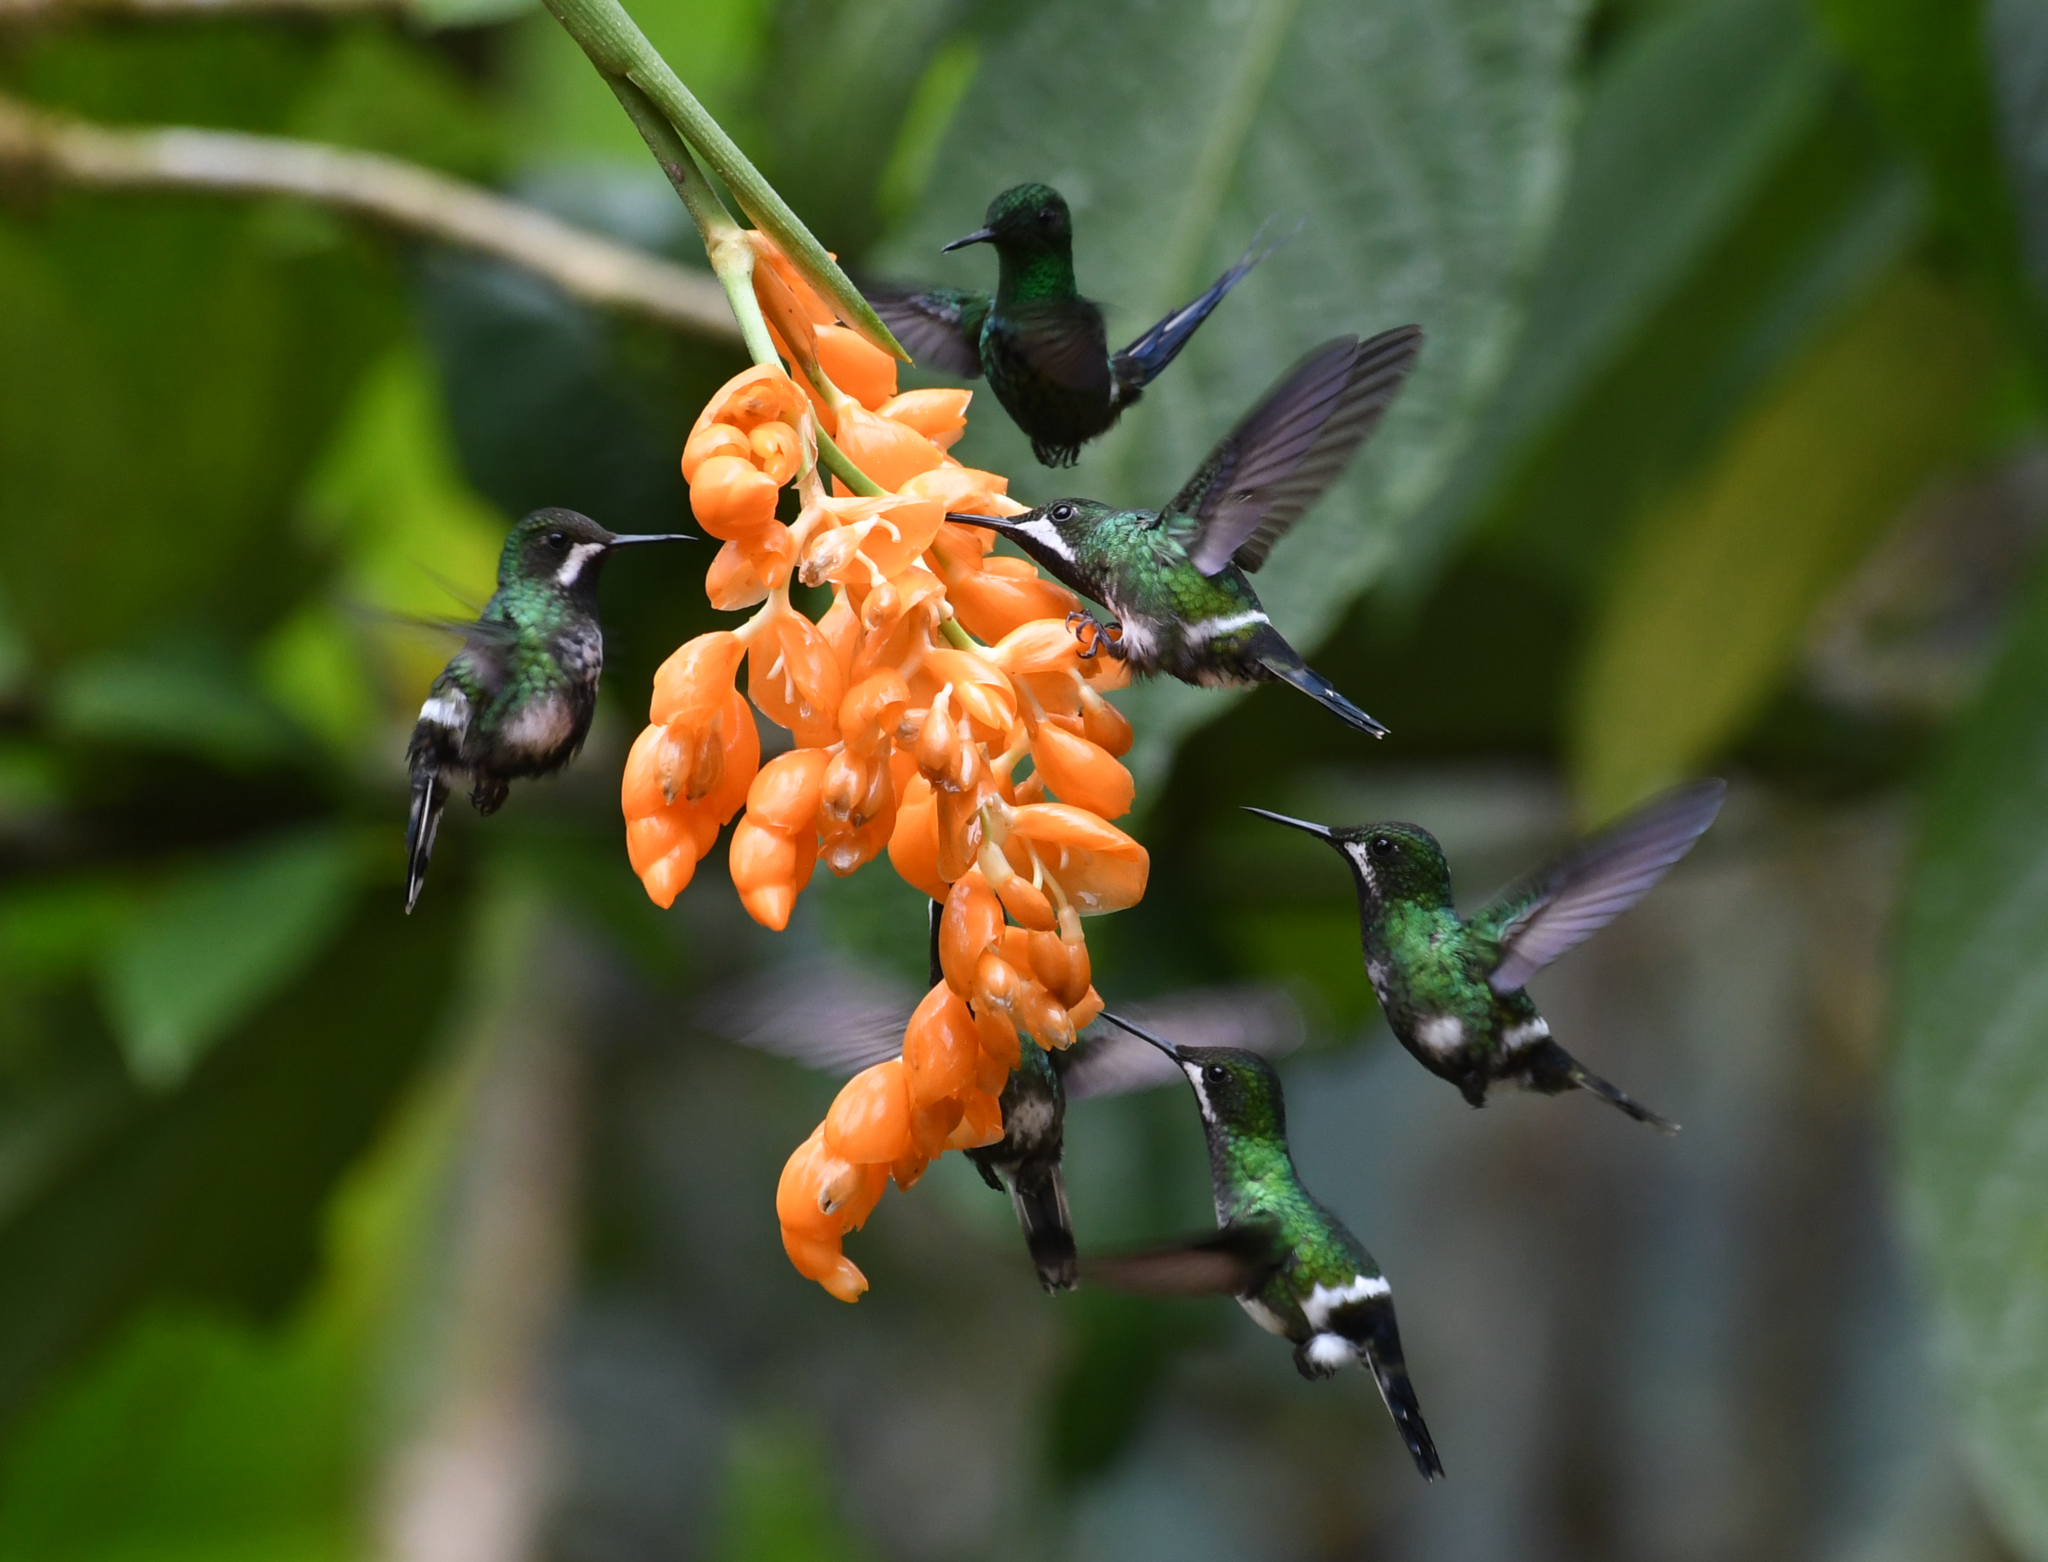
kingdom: Animalia
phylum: Chordata
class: Aves
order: Apodiformes
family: Trochilidae
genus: Discosura
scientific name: Discosura conversii
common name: Green thorntail
